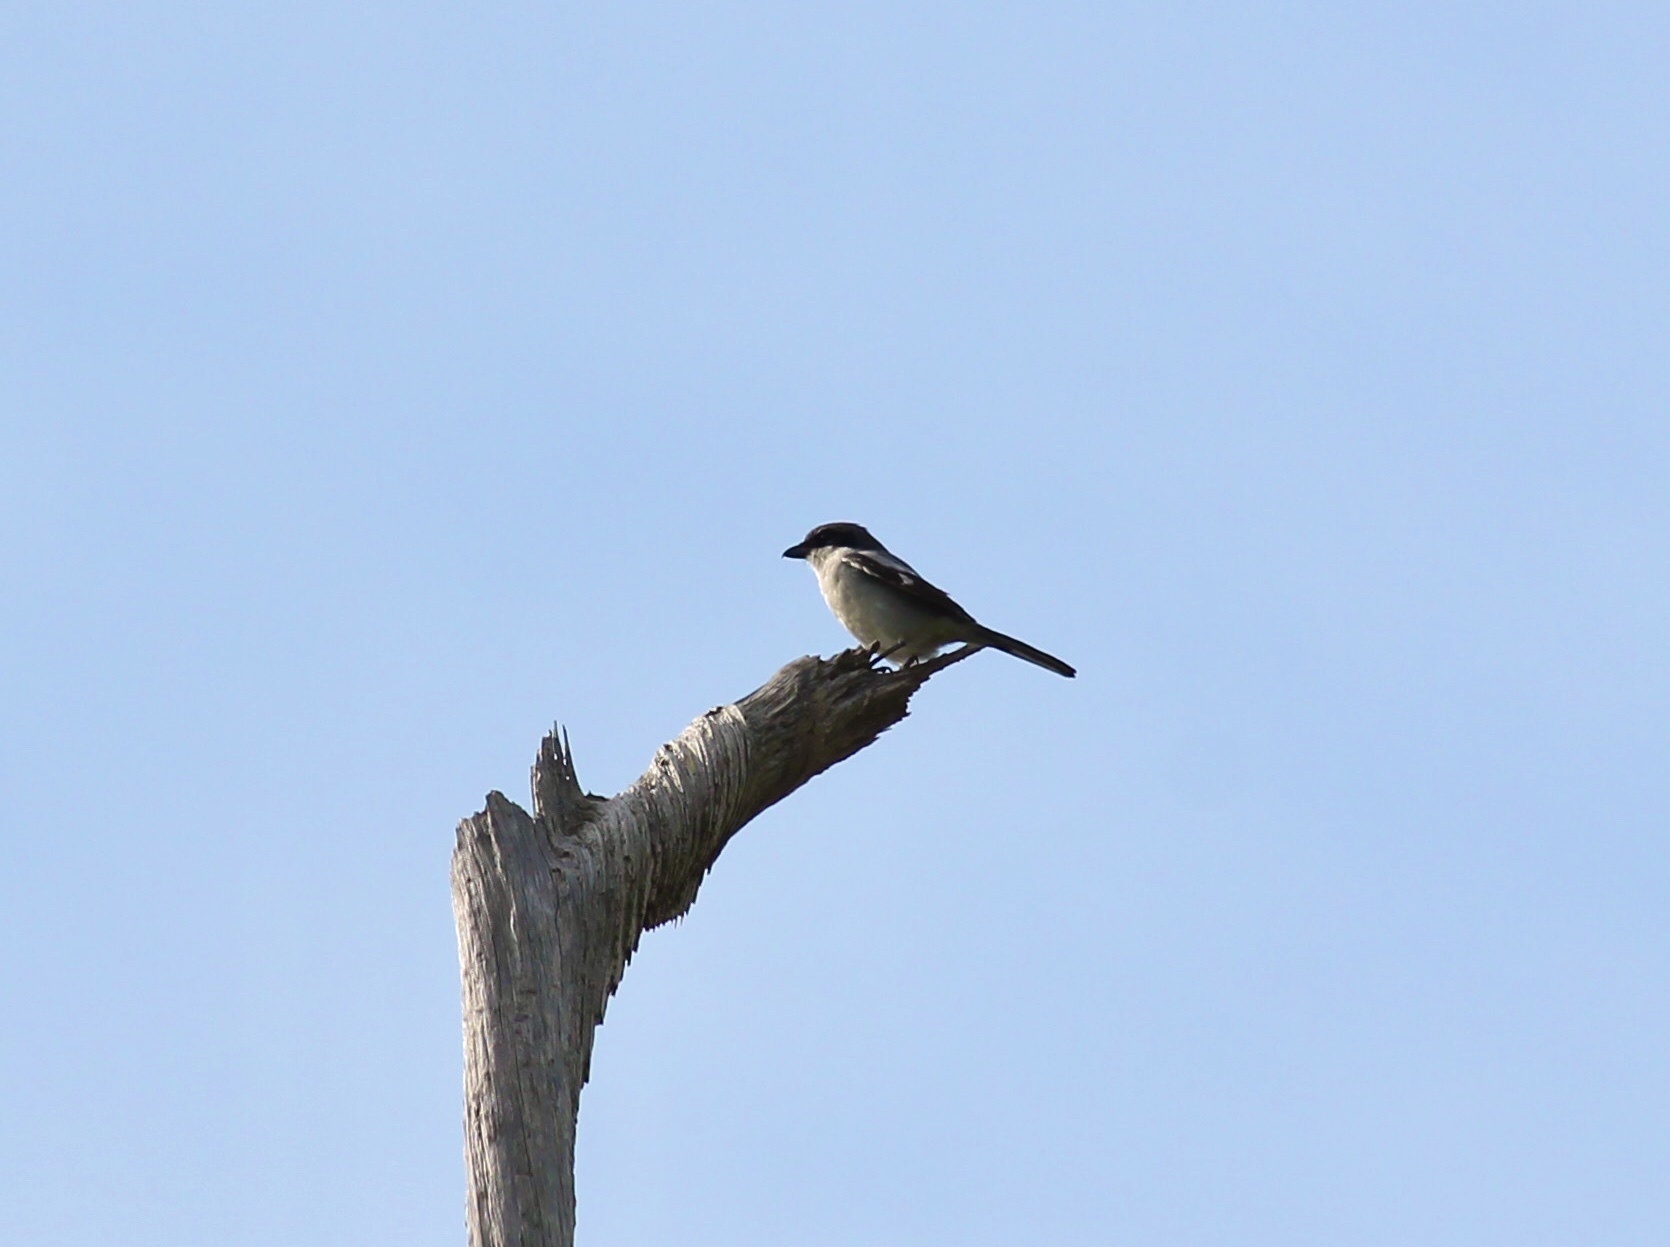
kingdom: Animalia
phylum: Chordata
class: Aves
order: Passeriformes
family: Laniidae
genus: Lanius
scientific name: Lanius ludovicianus
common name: Loggerhead shrike
